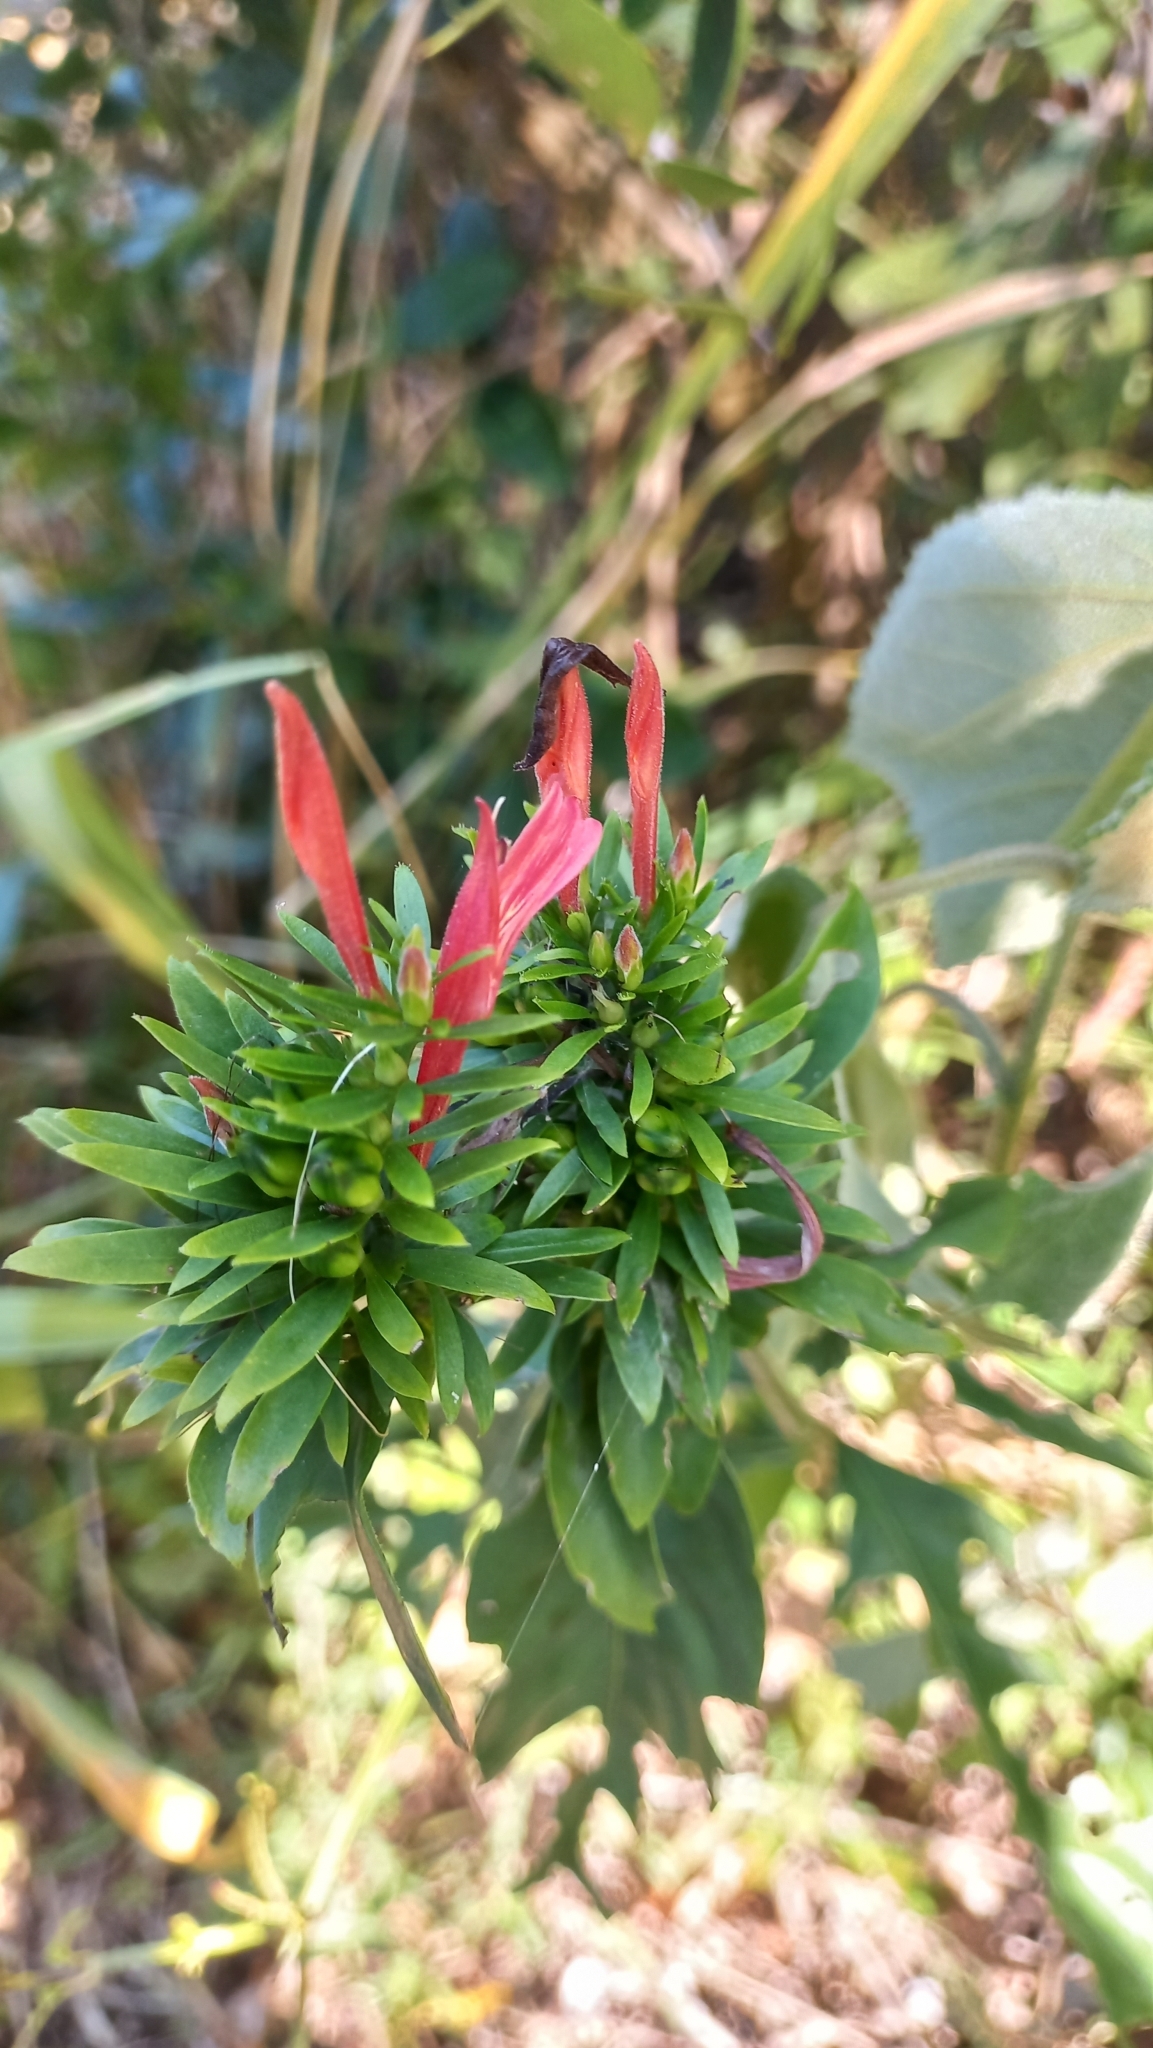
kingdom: Plantae
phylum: Tracheophyta
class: Magnoliopsida
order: Lamiales
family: Acanthaceae
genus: Justicia
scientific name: Justicia brasiliana
